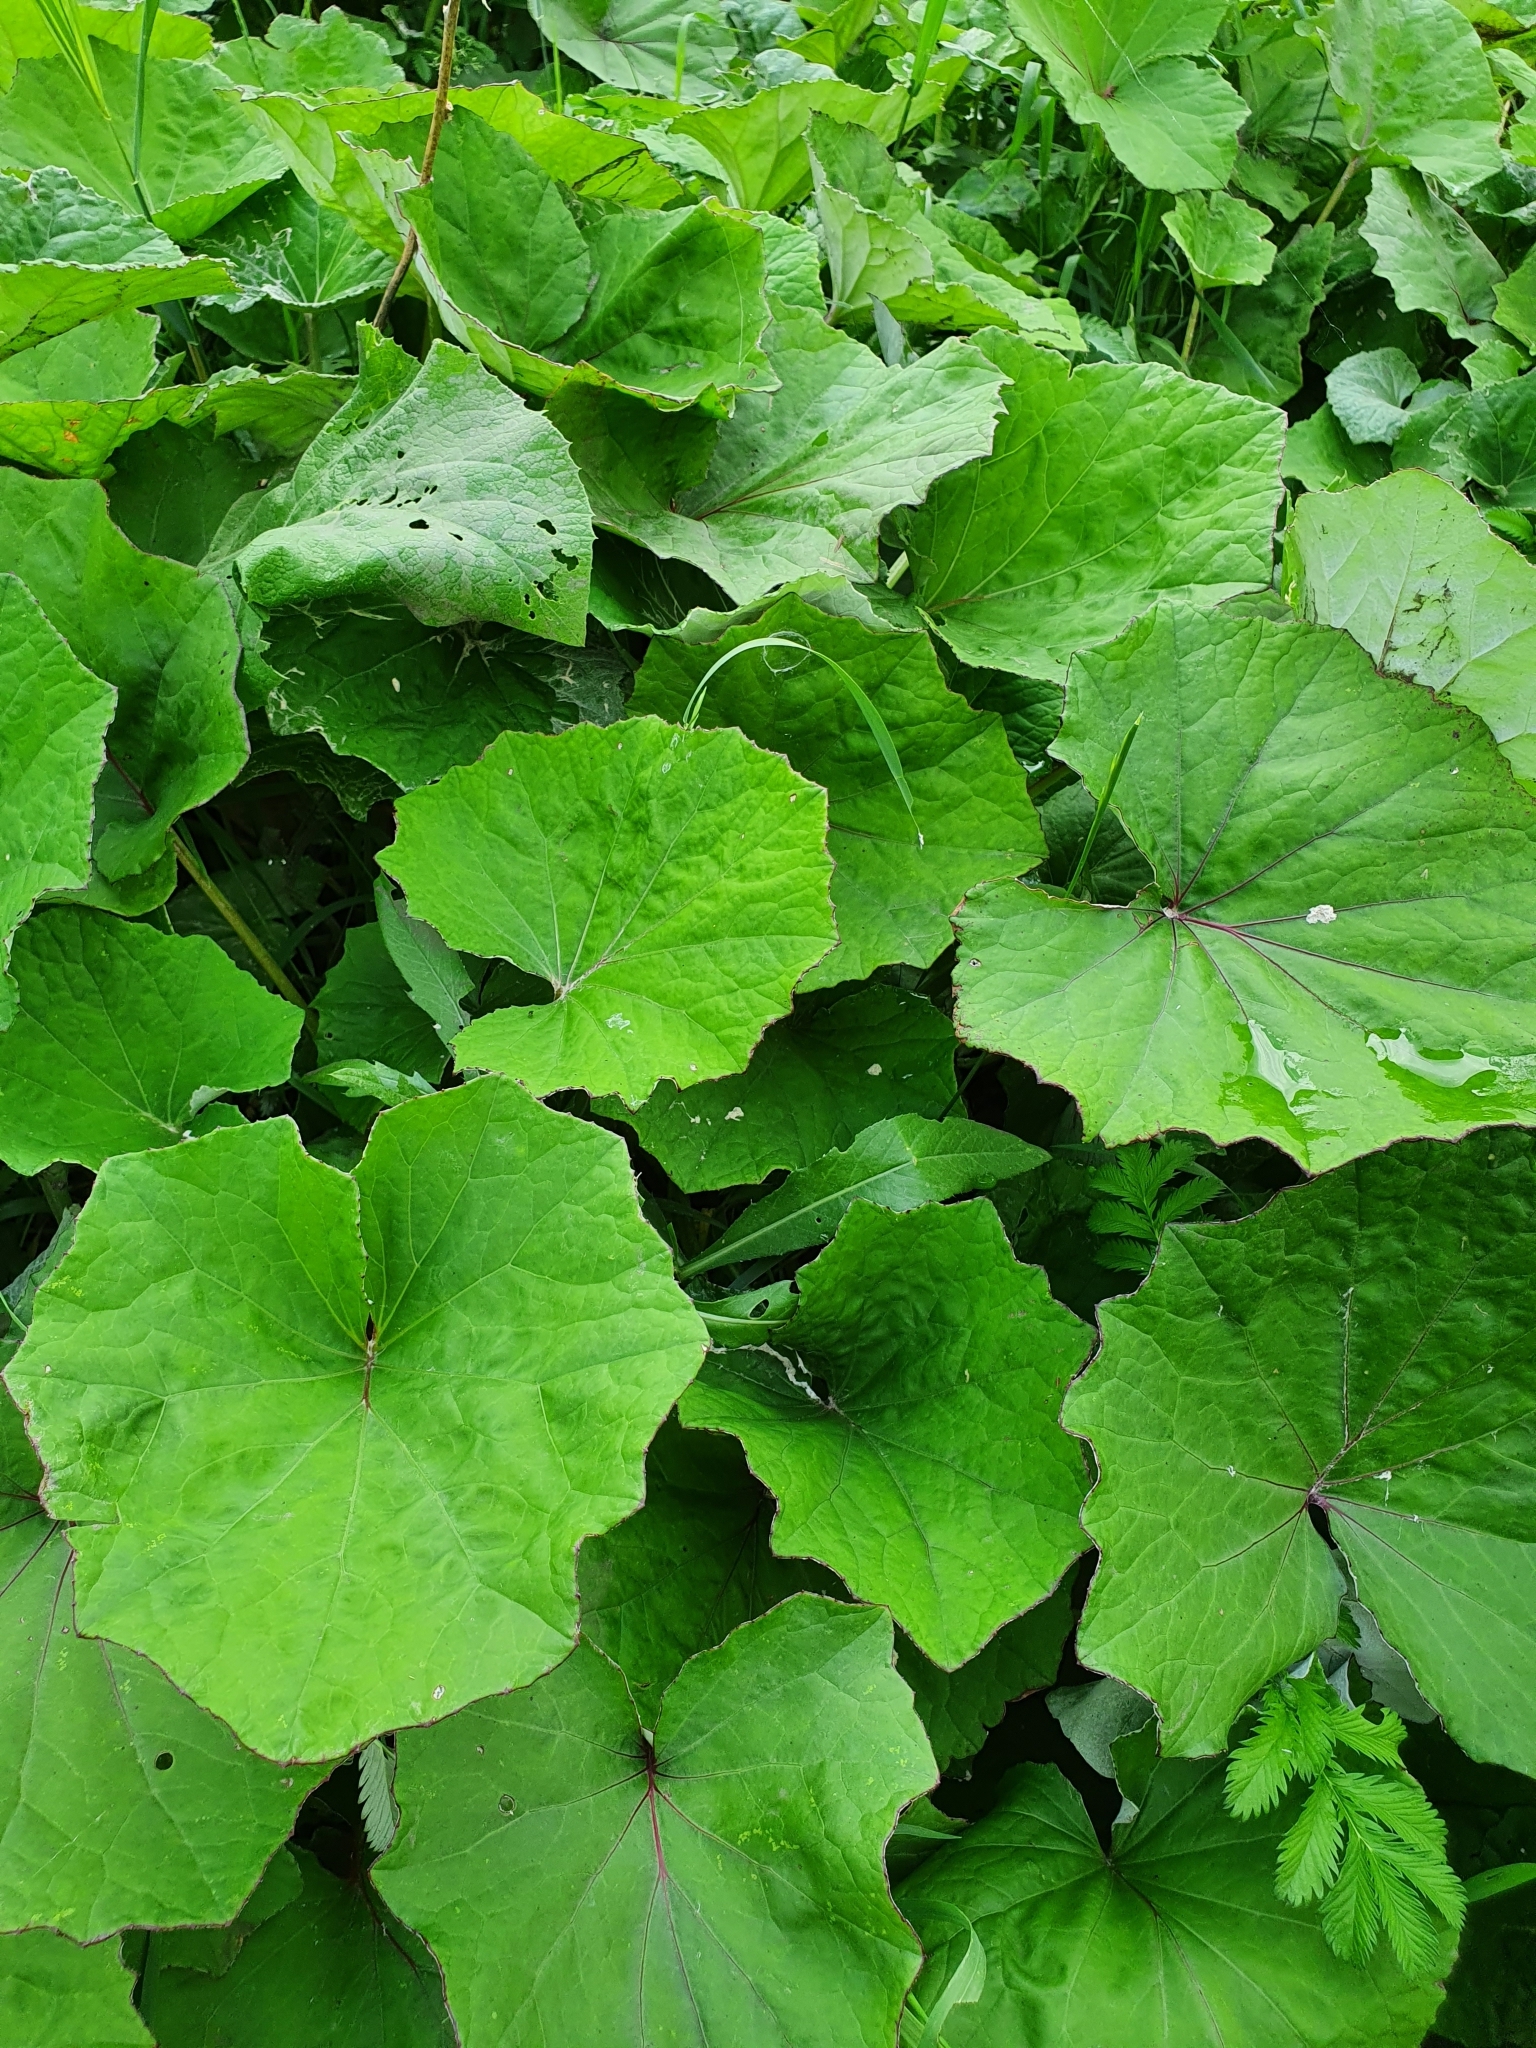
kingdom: Plantae
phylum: Tracheophyta
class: Magnoliopsida
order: Asterales
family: Asteraceae
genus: Tussilago
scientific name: Tussilago farfara
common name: Coltsfoot
